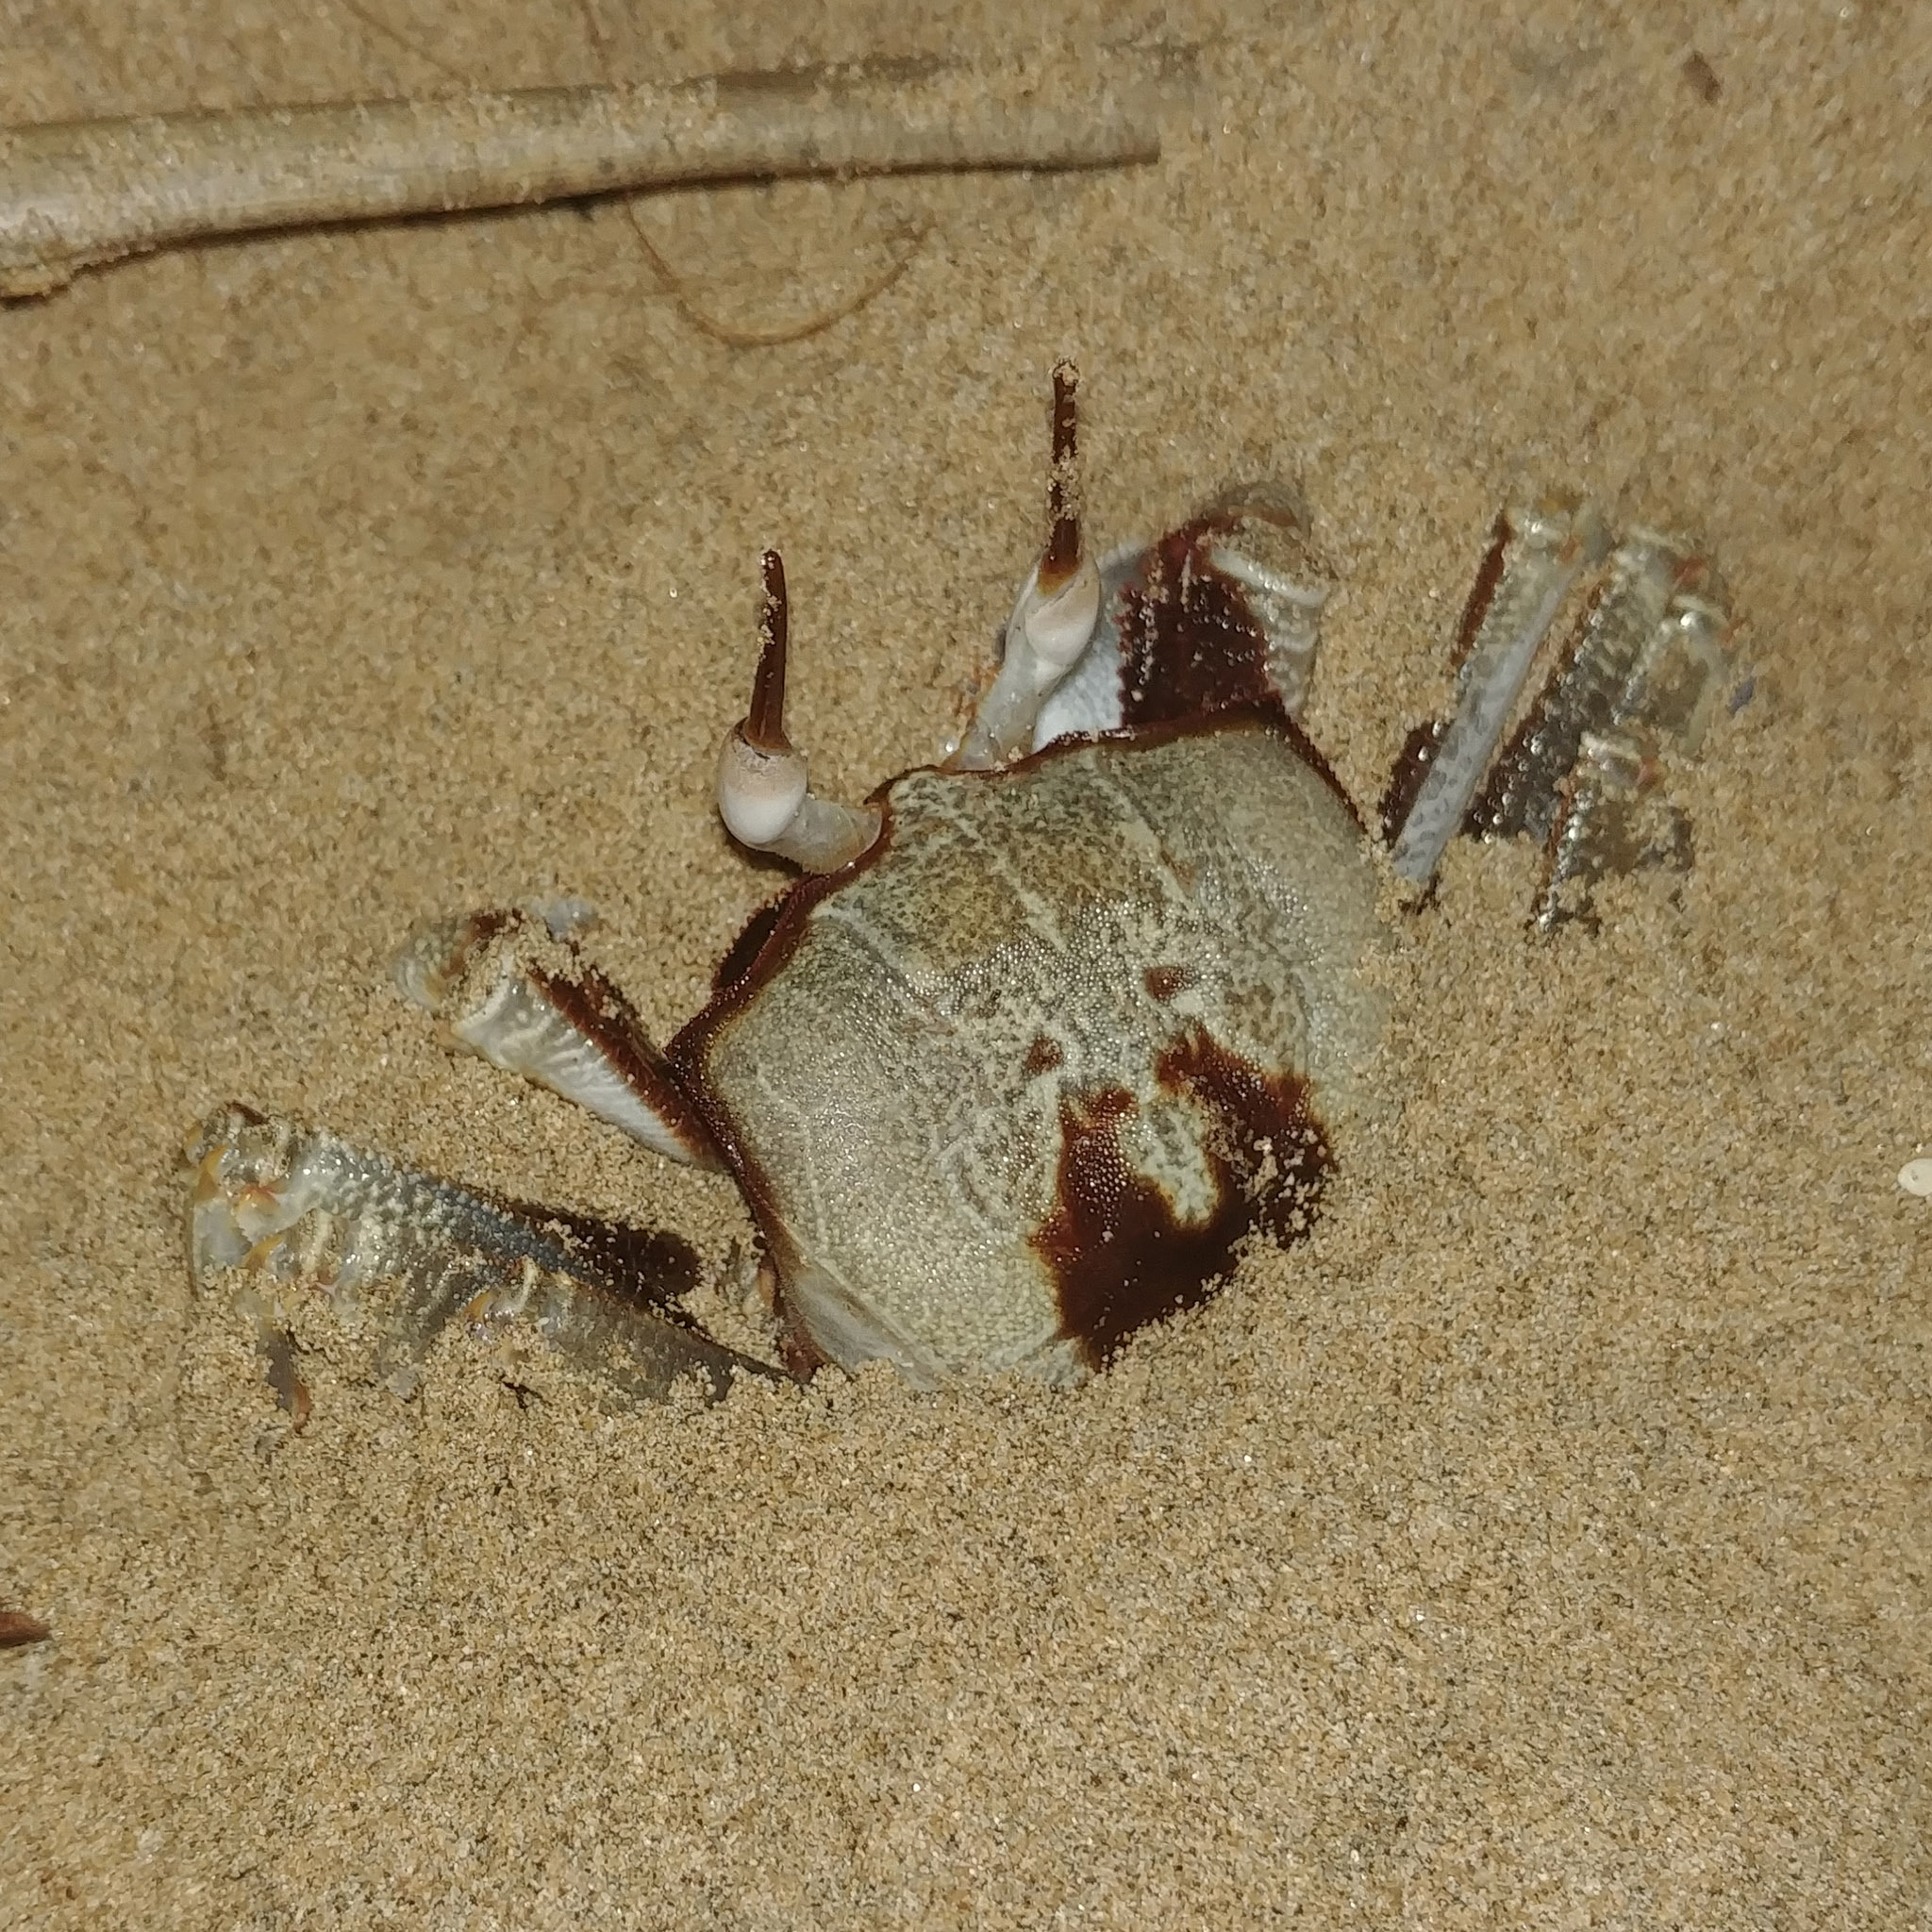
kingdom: Animalia
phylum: Arthropoda
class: Malacostraca
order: Decapoda
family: Ocypodidae
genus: Ocypode
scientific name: Ocypode ceratophthalmus
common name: Indo-pacific ghost crab
